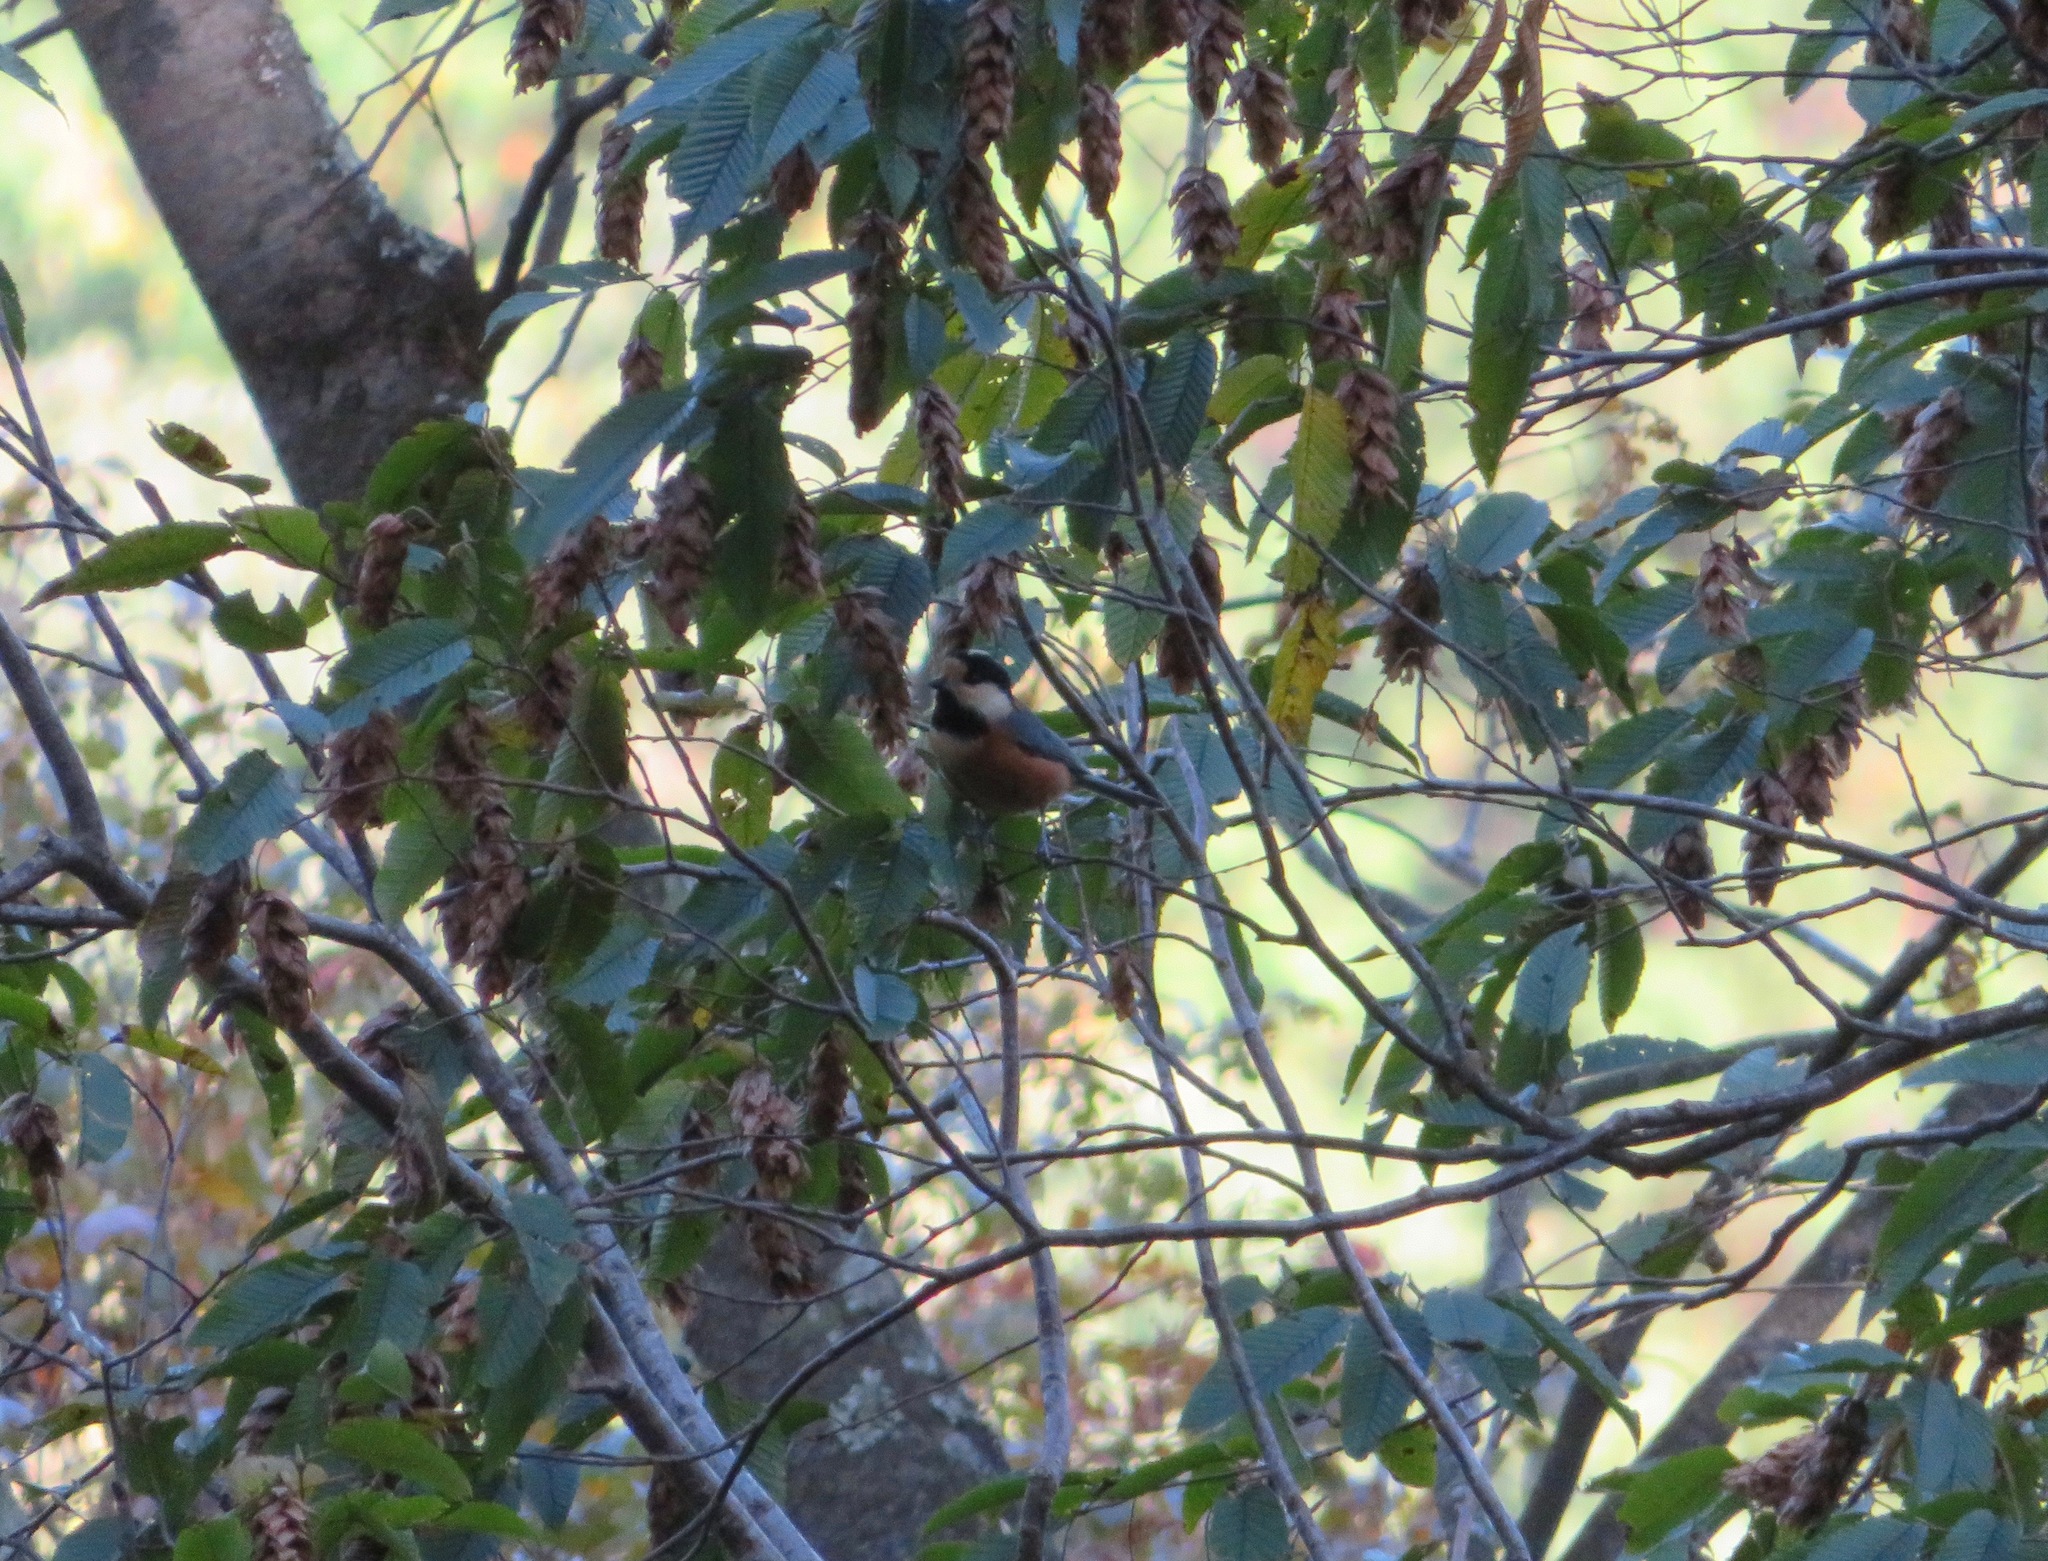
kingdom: Animalia
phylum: Chordata
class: Aves
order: Passeriformes
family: Paridae
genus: Poecile
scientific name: Poecile varius
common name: Varied tit
